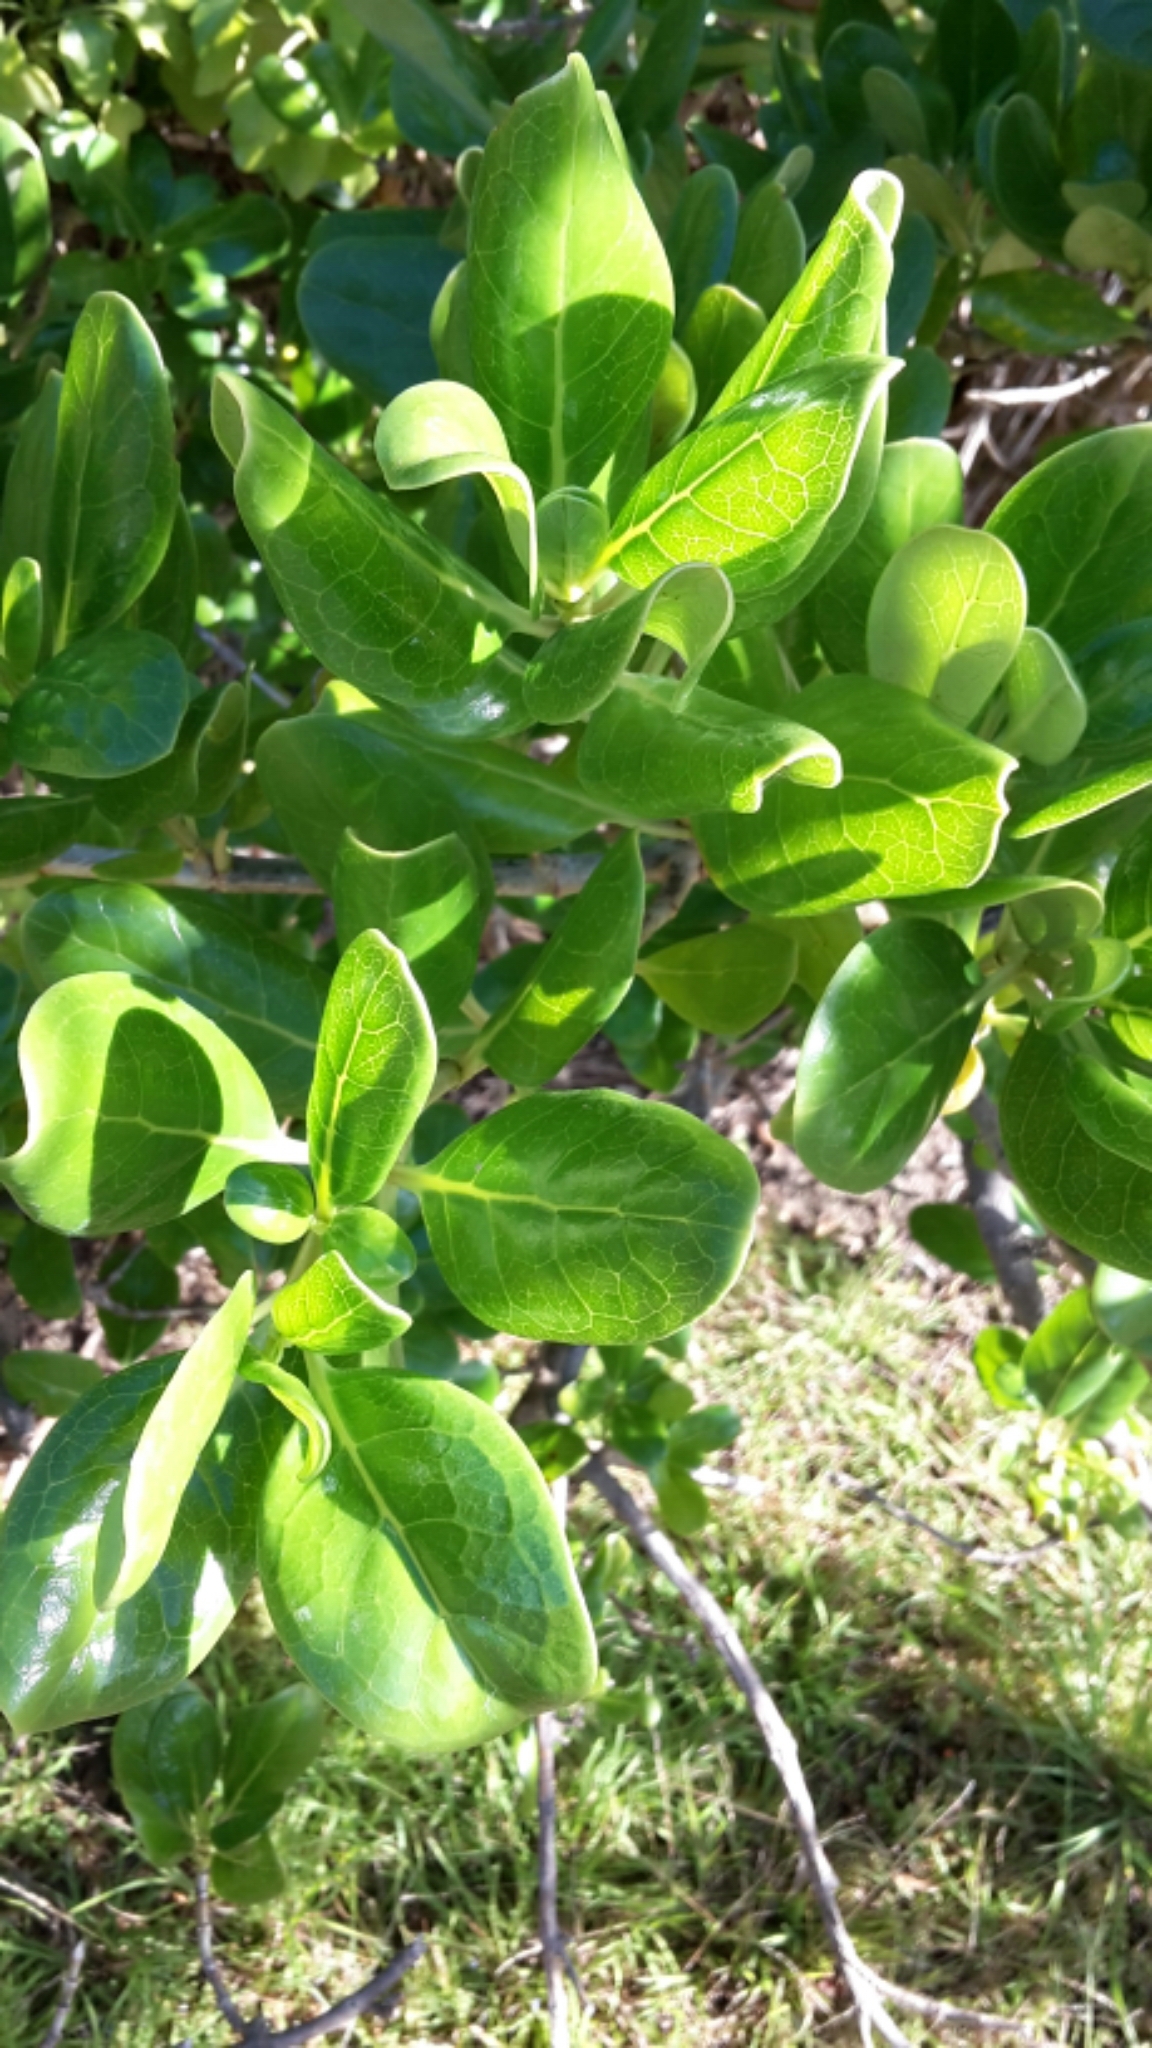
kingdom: Plantae
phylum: Tracheophyta
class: Magnoliopsida
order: Gentianales
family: Rubiaceae
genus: Coprosma
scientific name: Coprosma repens
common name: Tree bedstraw
